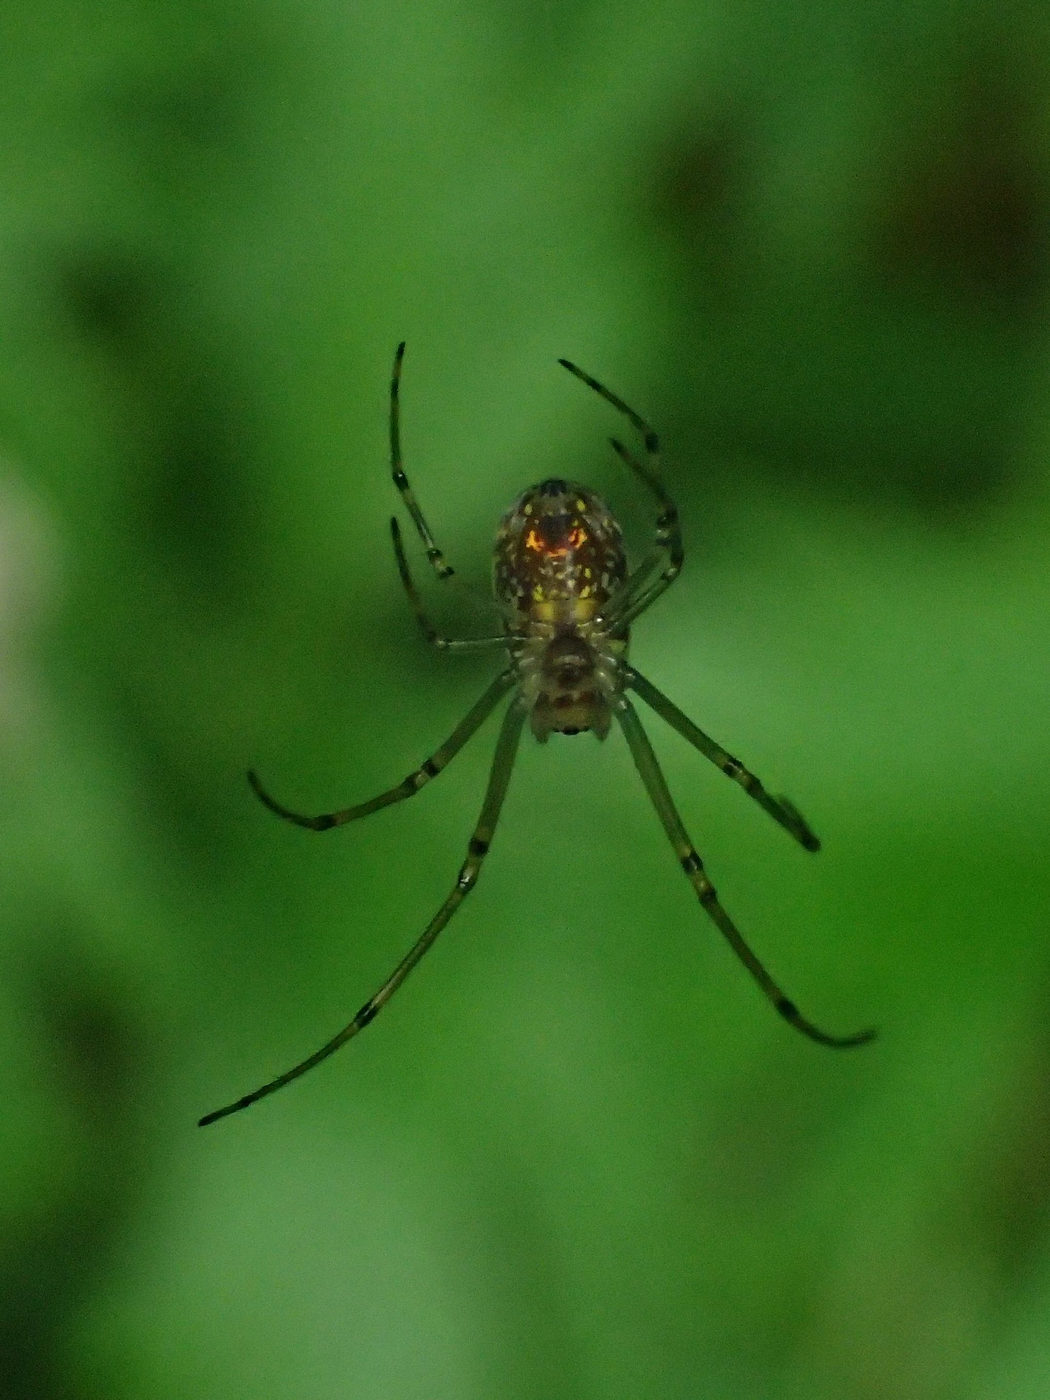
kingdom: Animalia
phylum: Arthropoda
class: Arachnida
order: Araneae
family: Tetragnathidae
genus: Leucauge
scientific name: Leucauge venusta
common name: Longjawed orb weavers
